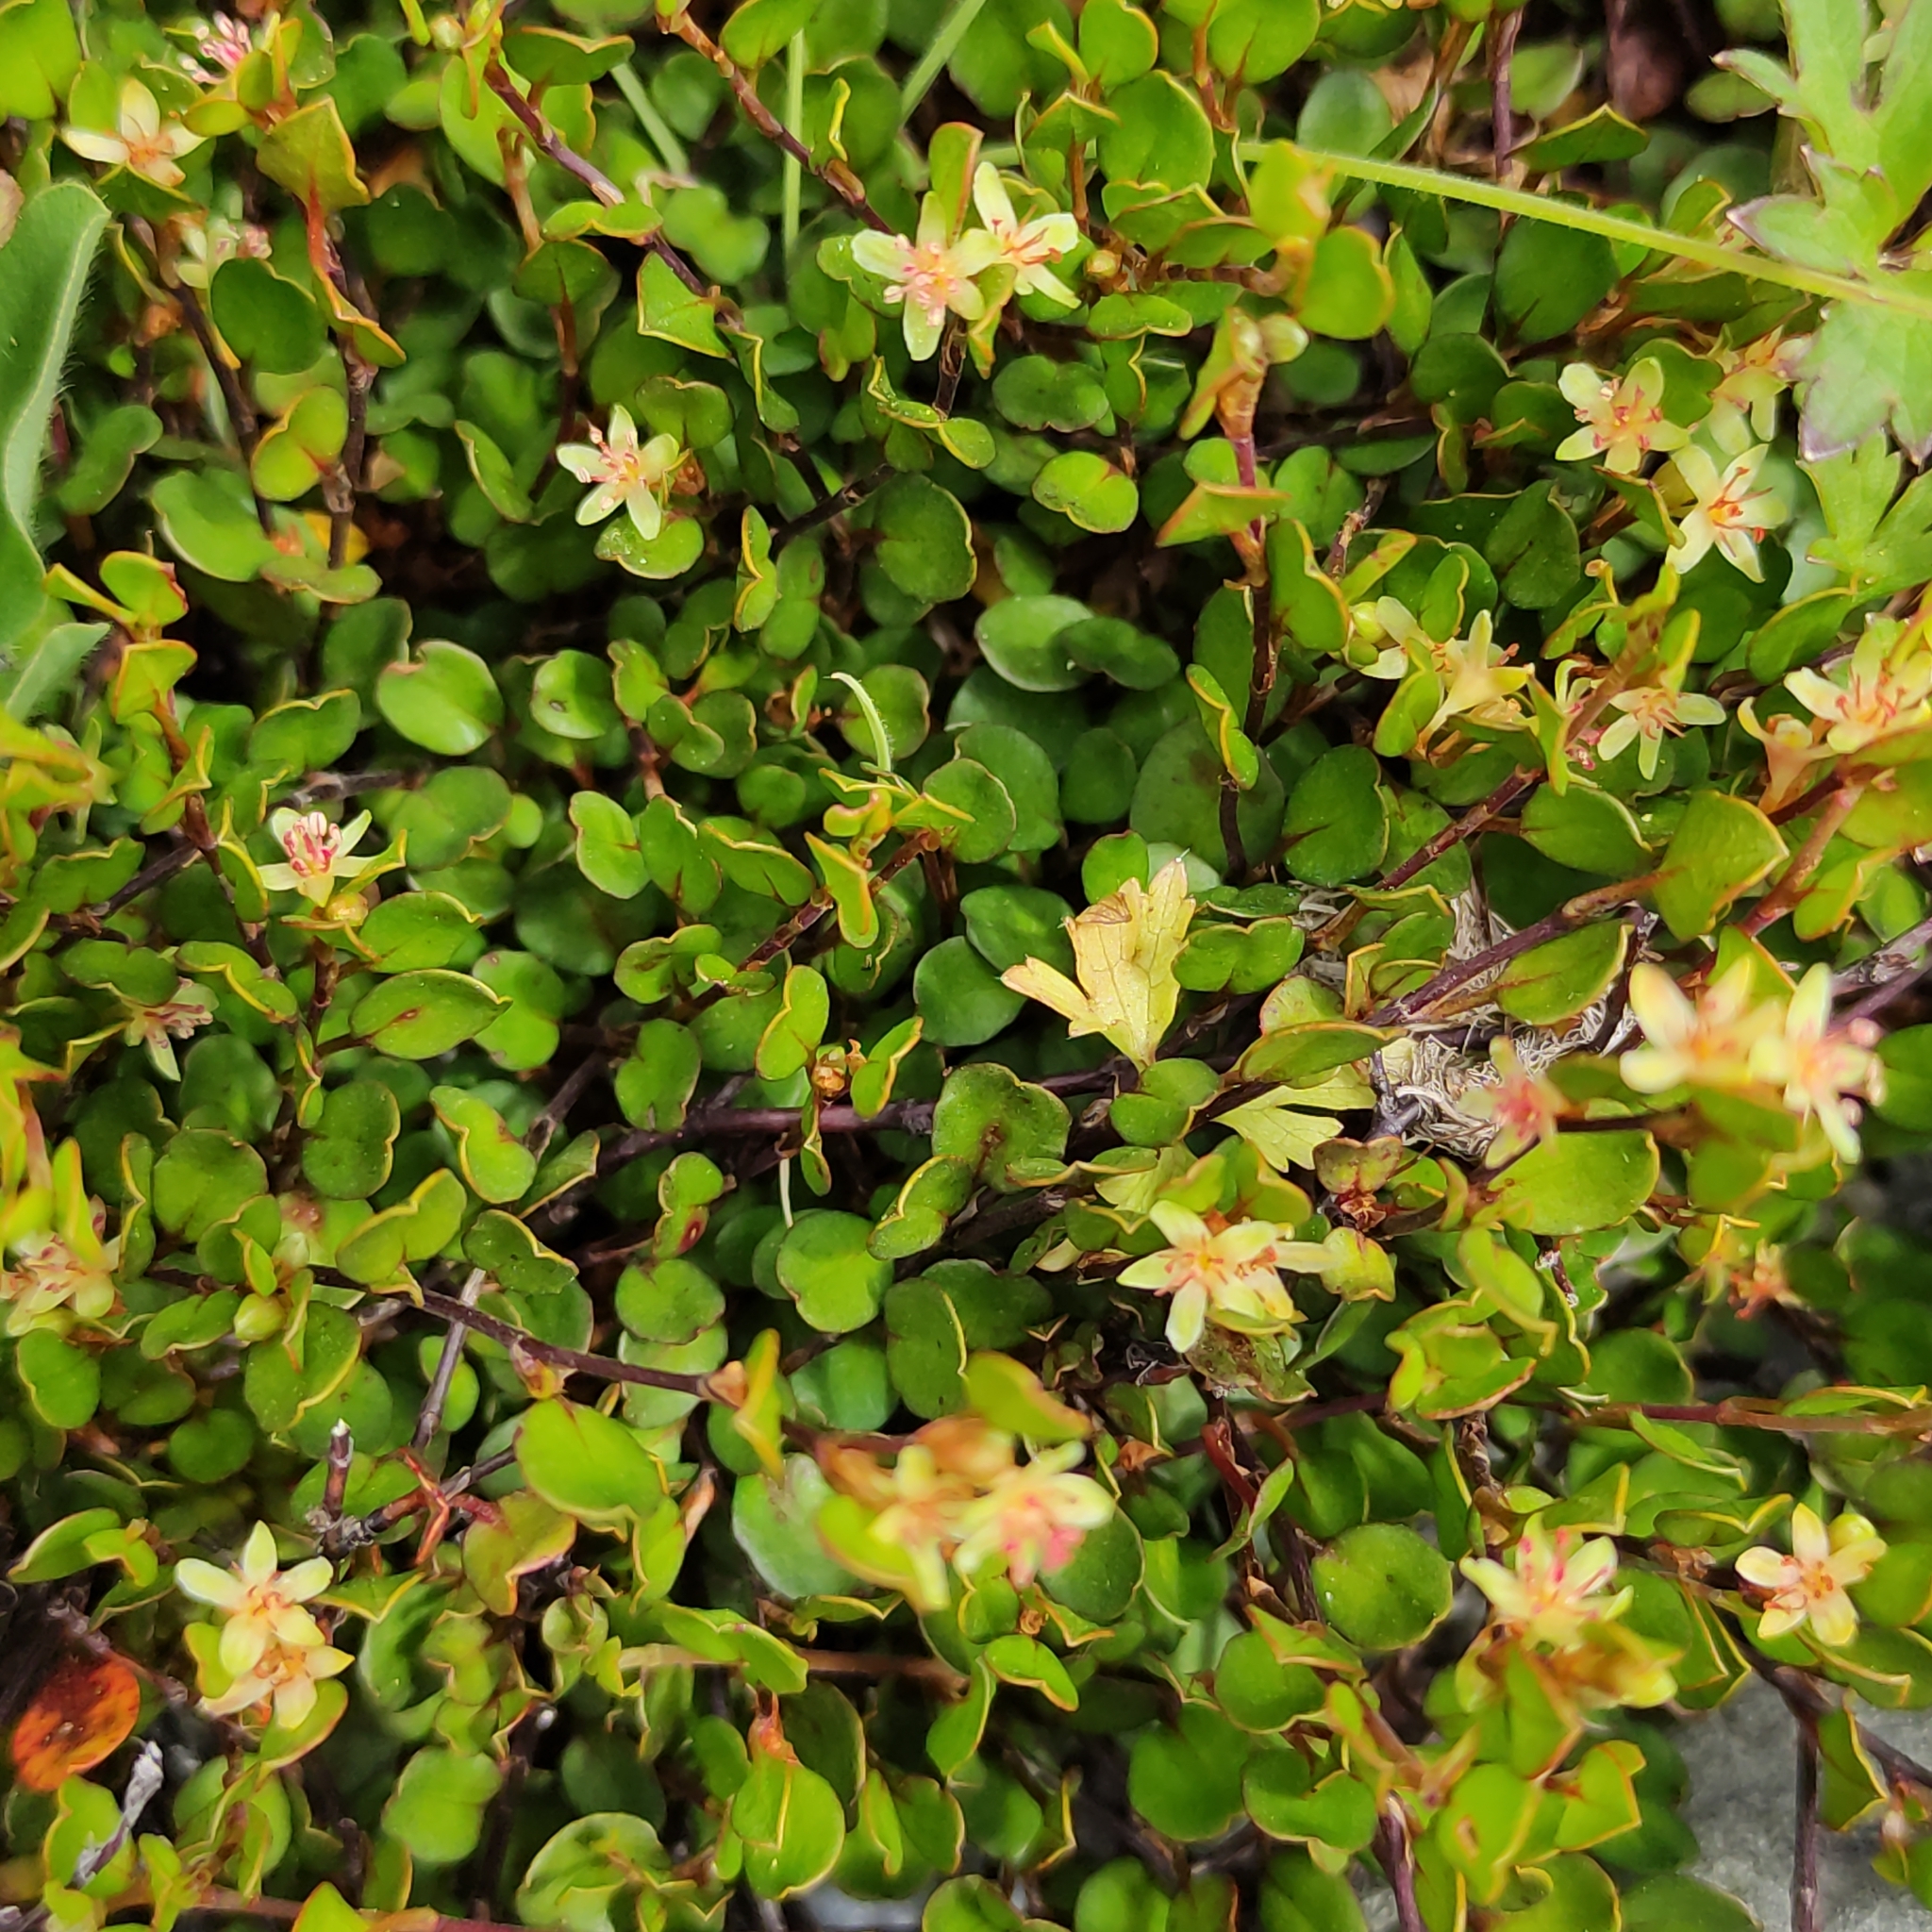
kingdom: Plantae
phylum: Tracheophyta
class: Magnoliopsida
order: Caryophyllales
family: Polygonaceae
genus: Muehlenbeckia
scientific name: Muehlenbeckia axillaris
